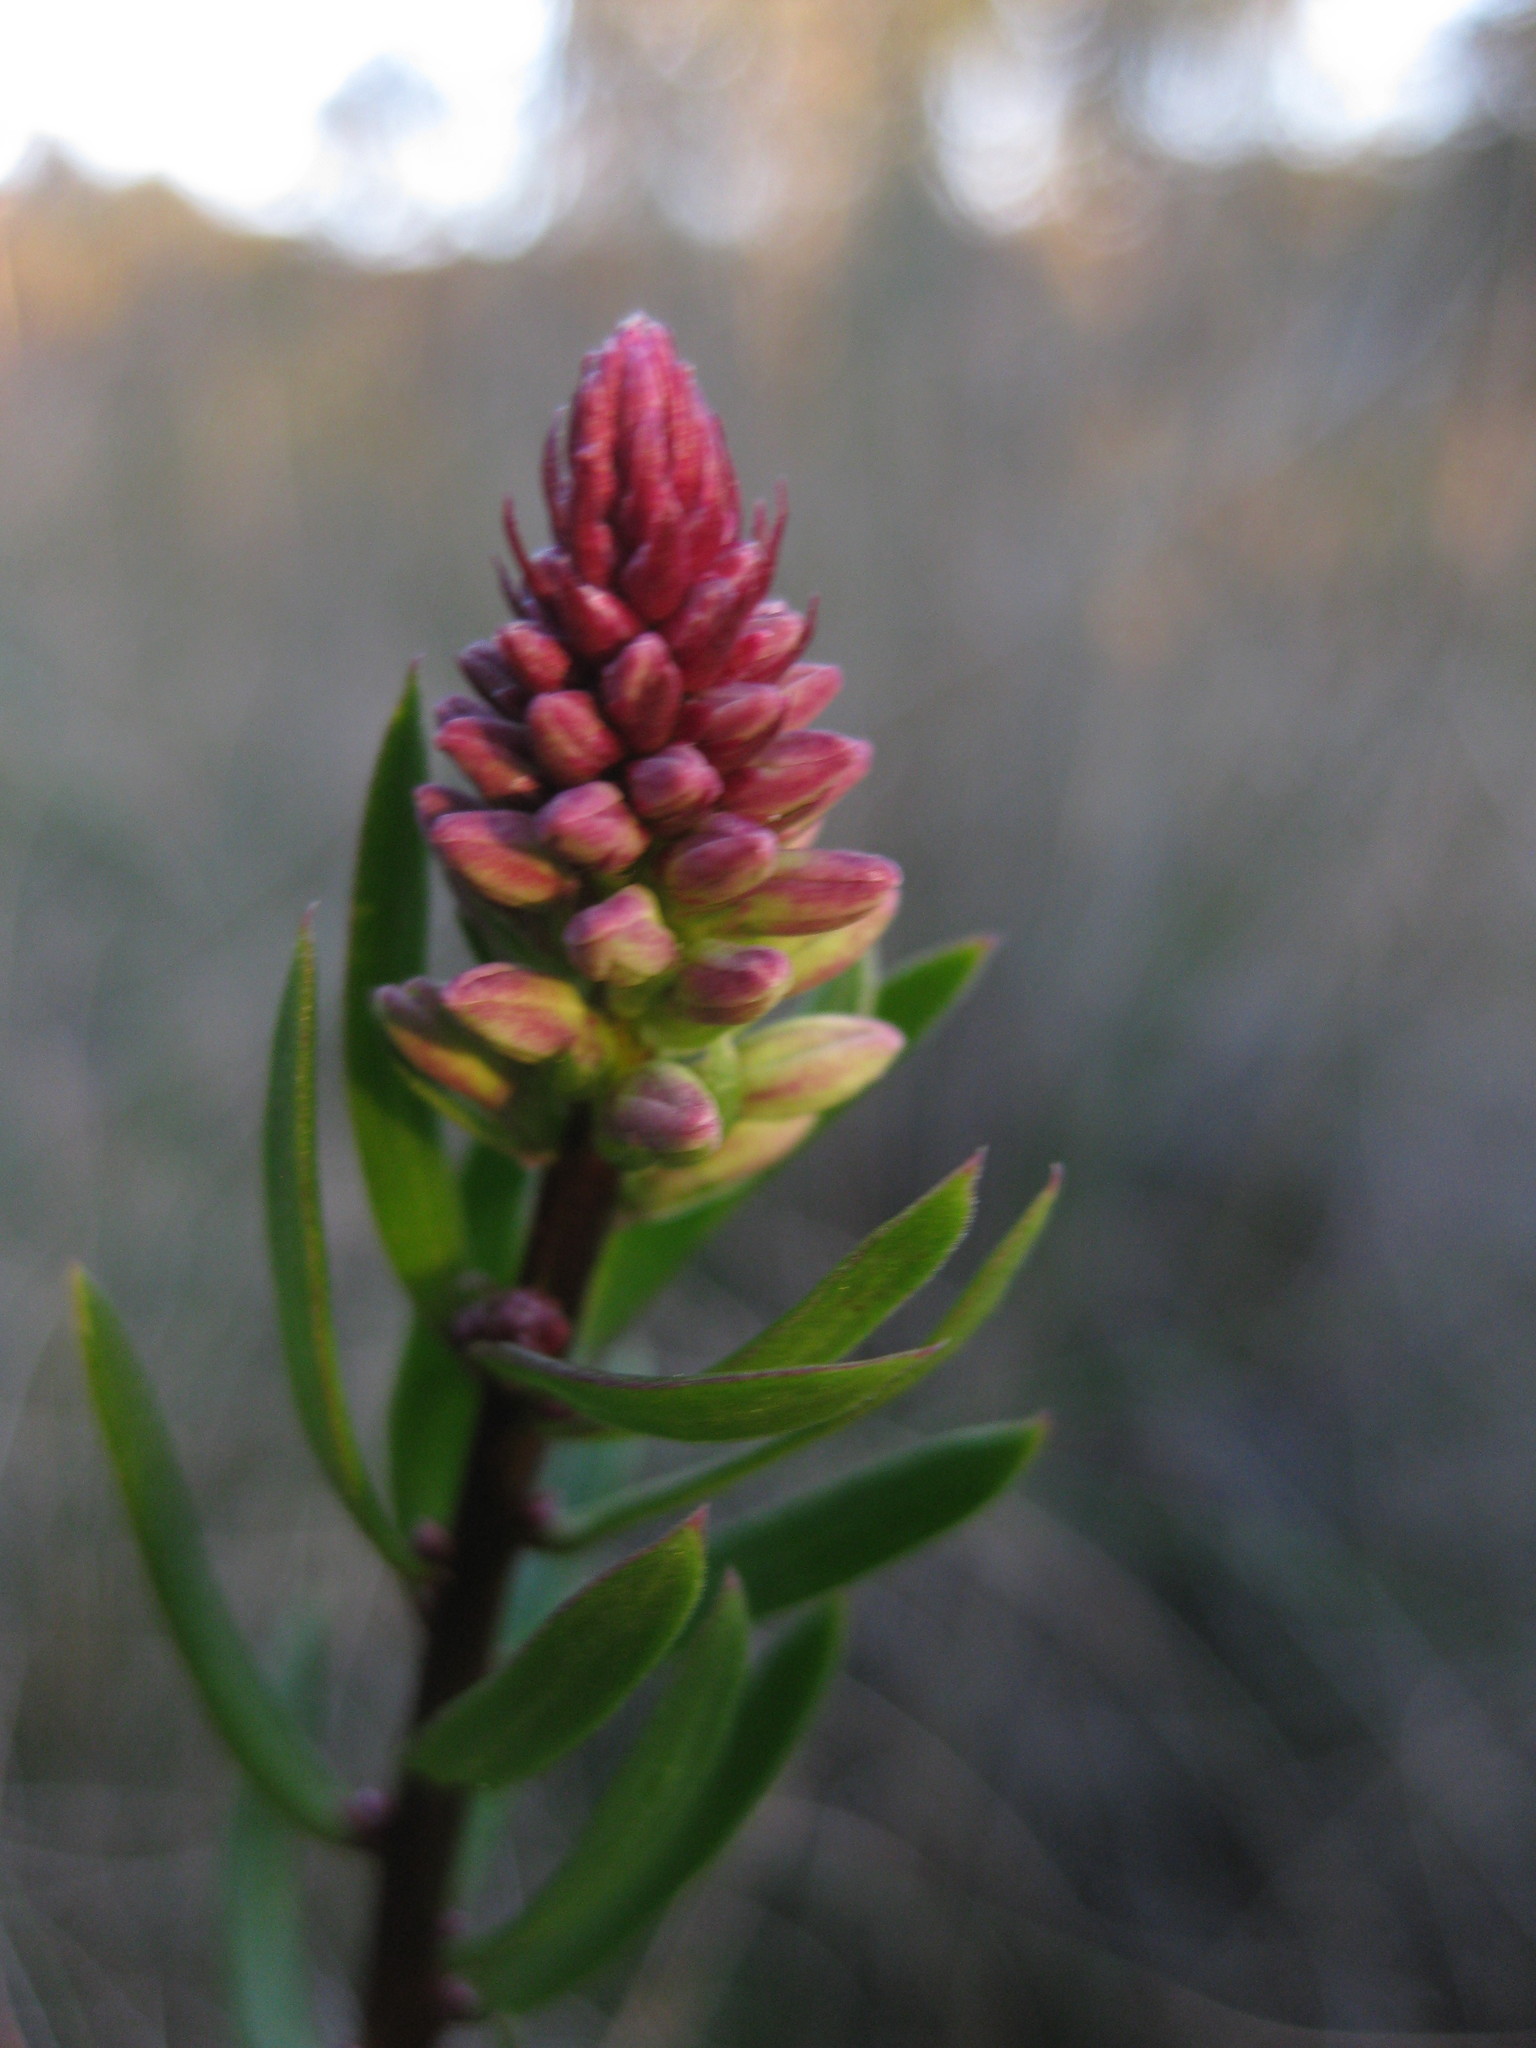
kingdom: Plantae
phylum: Tracheophyta
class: Magnoliopsida
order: Celastrales
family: Celastraceae
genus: Stackhousia
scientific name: Stackhousia monogyna
